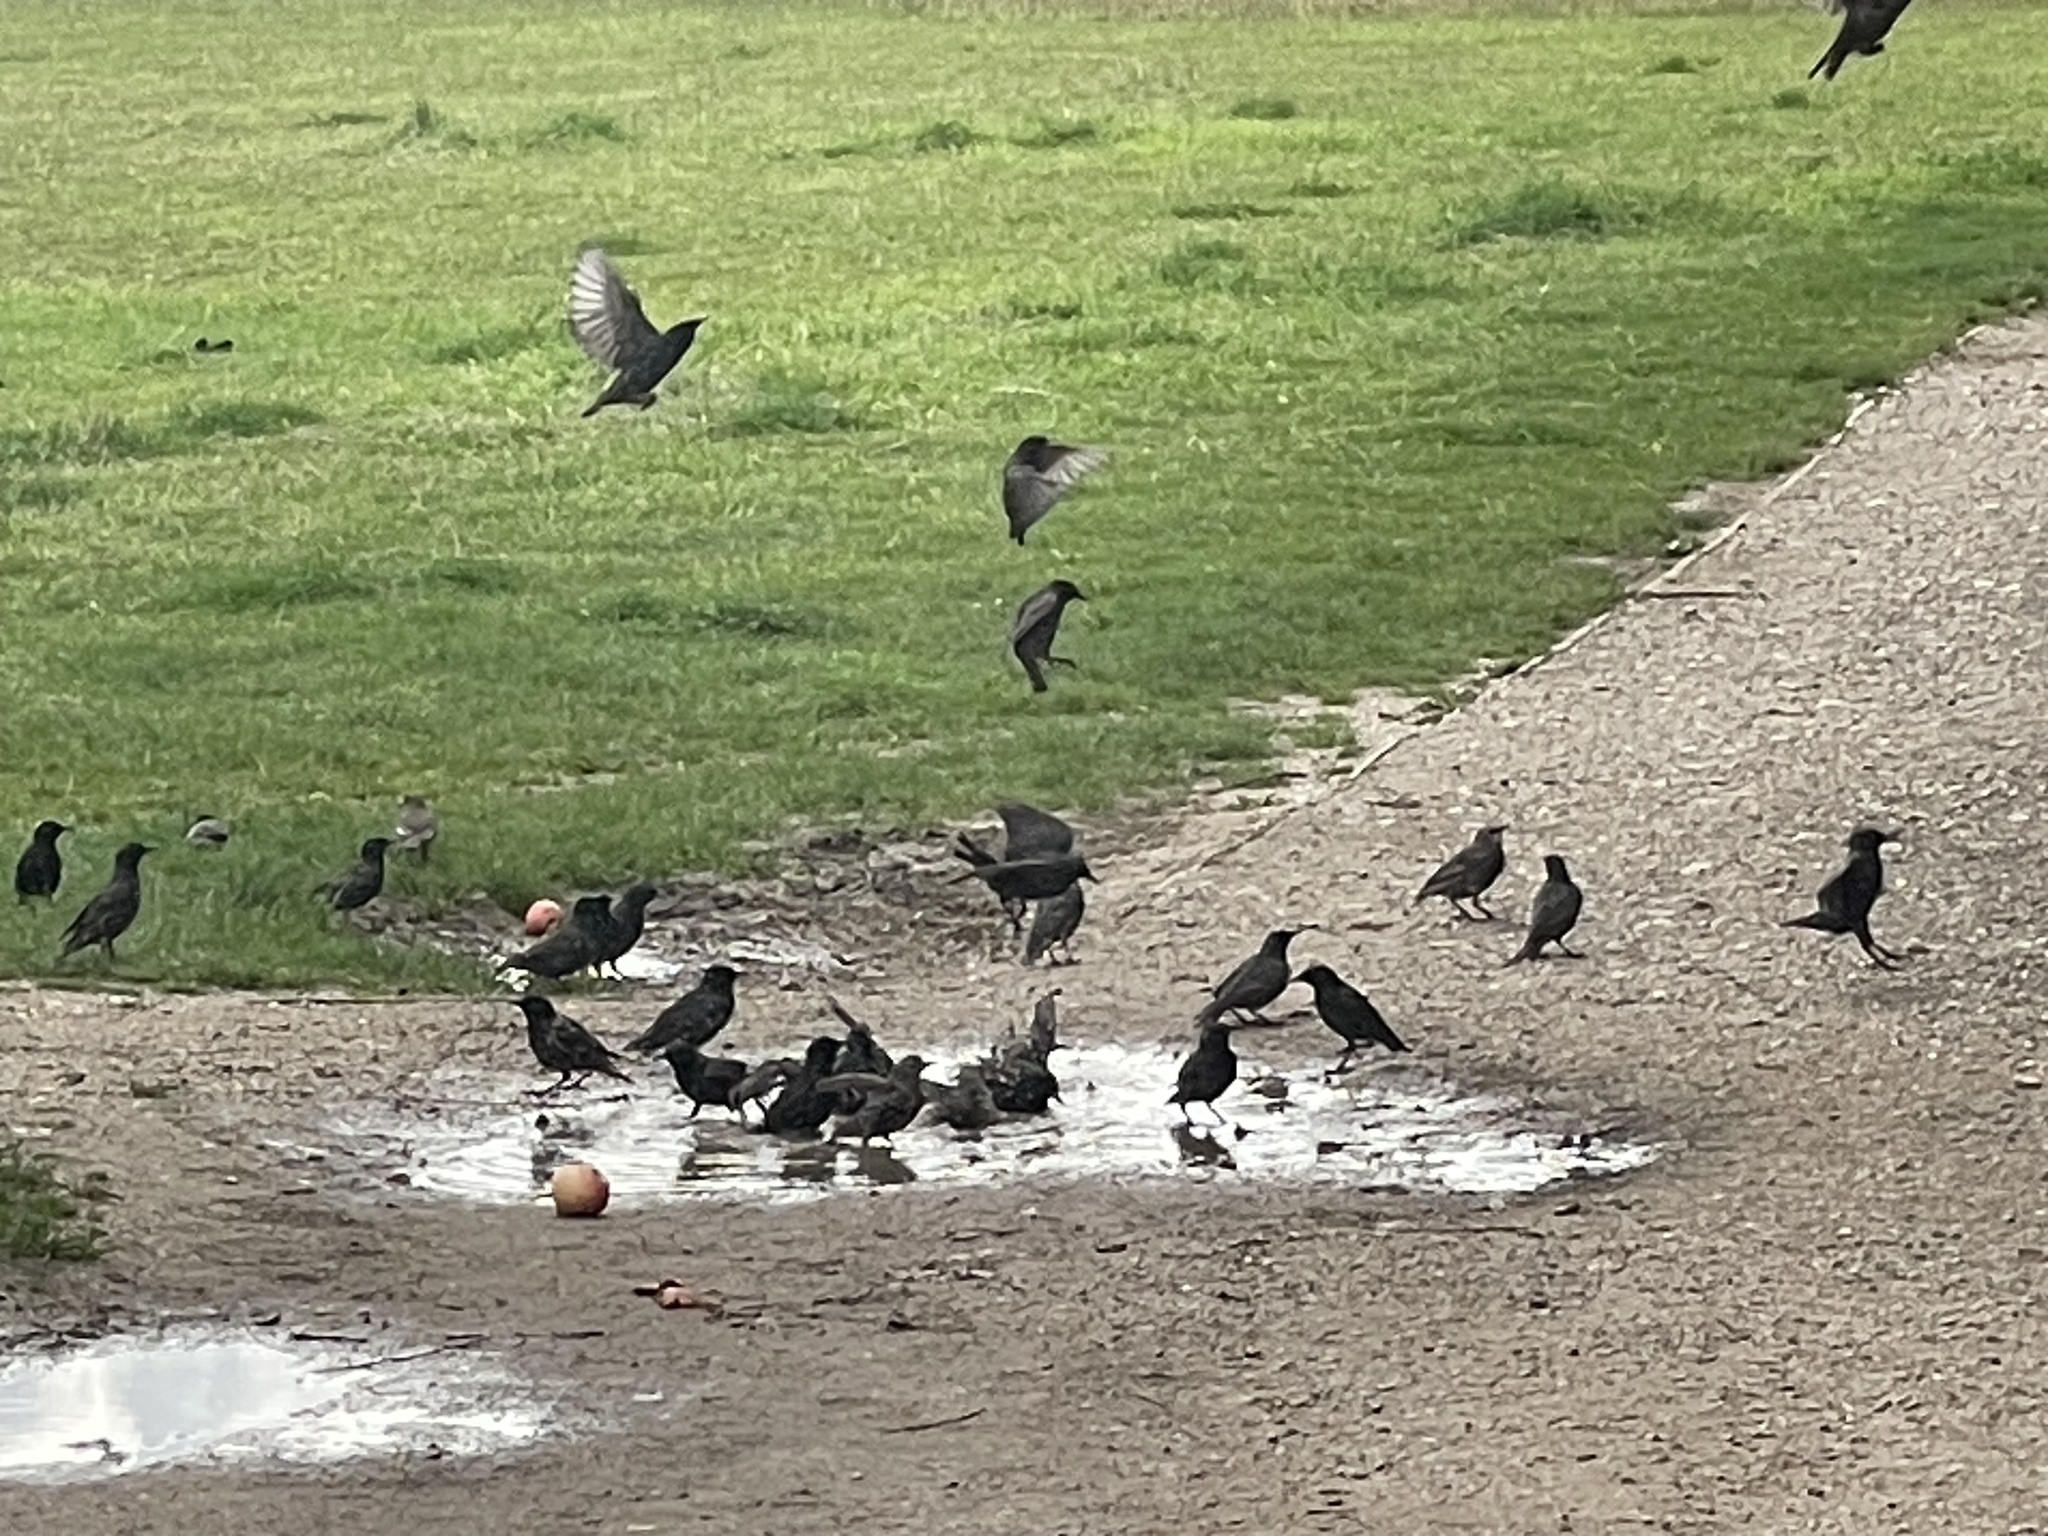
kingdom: Animalia
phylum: Chordata
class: Aves
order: Passeriformes
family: Sturnidae
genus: Sturnus
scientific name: Sturnus vulgaris
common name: Common starling
